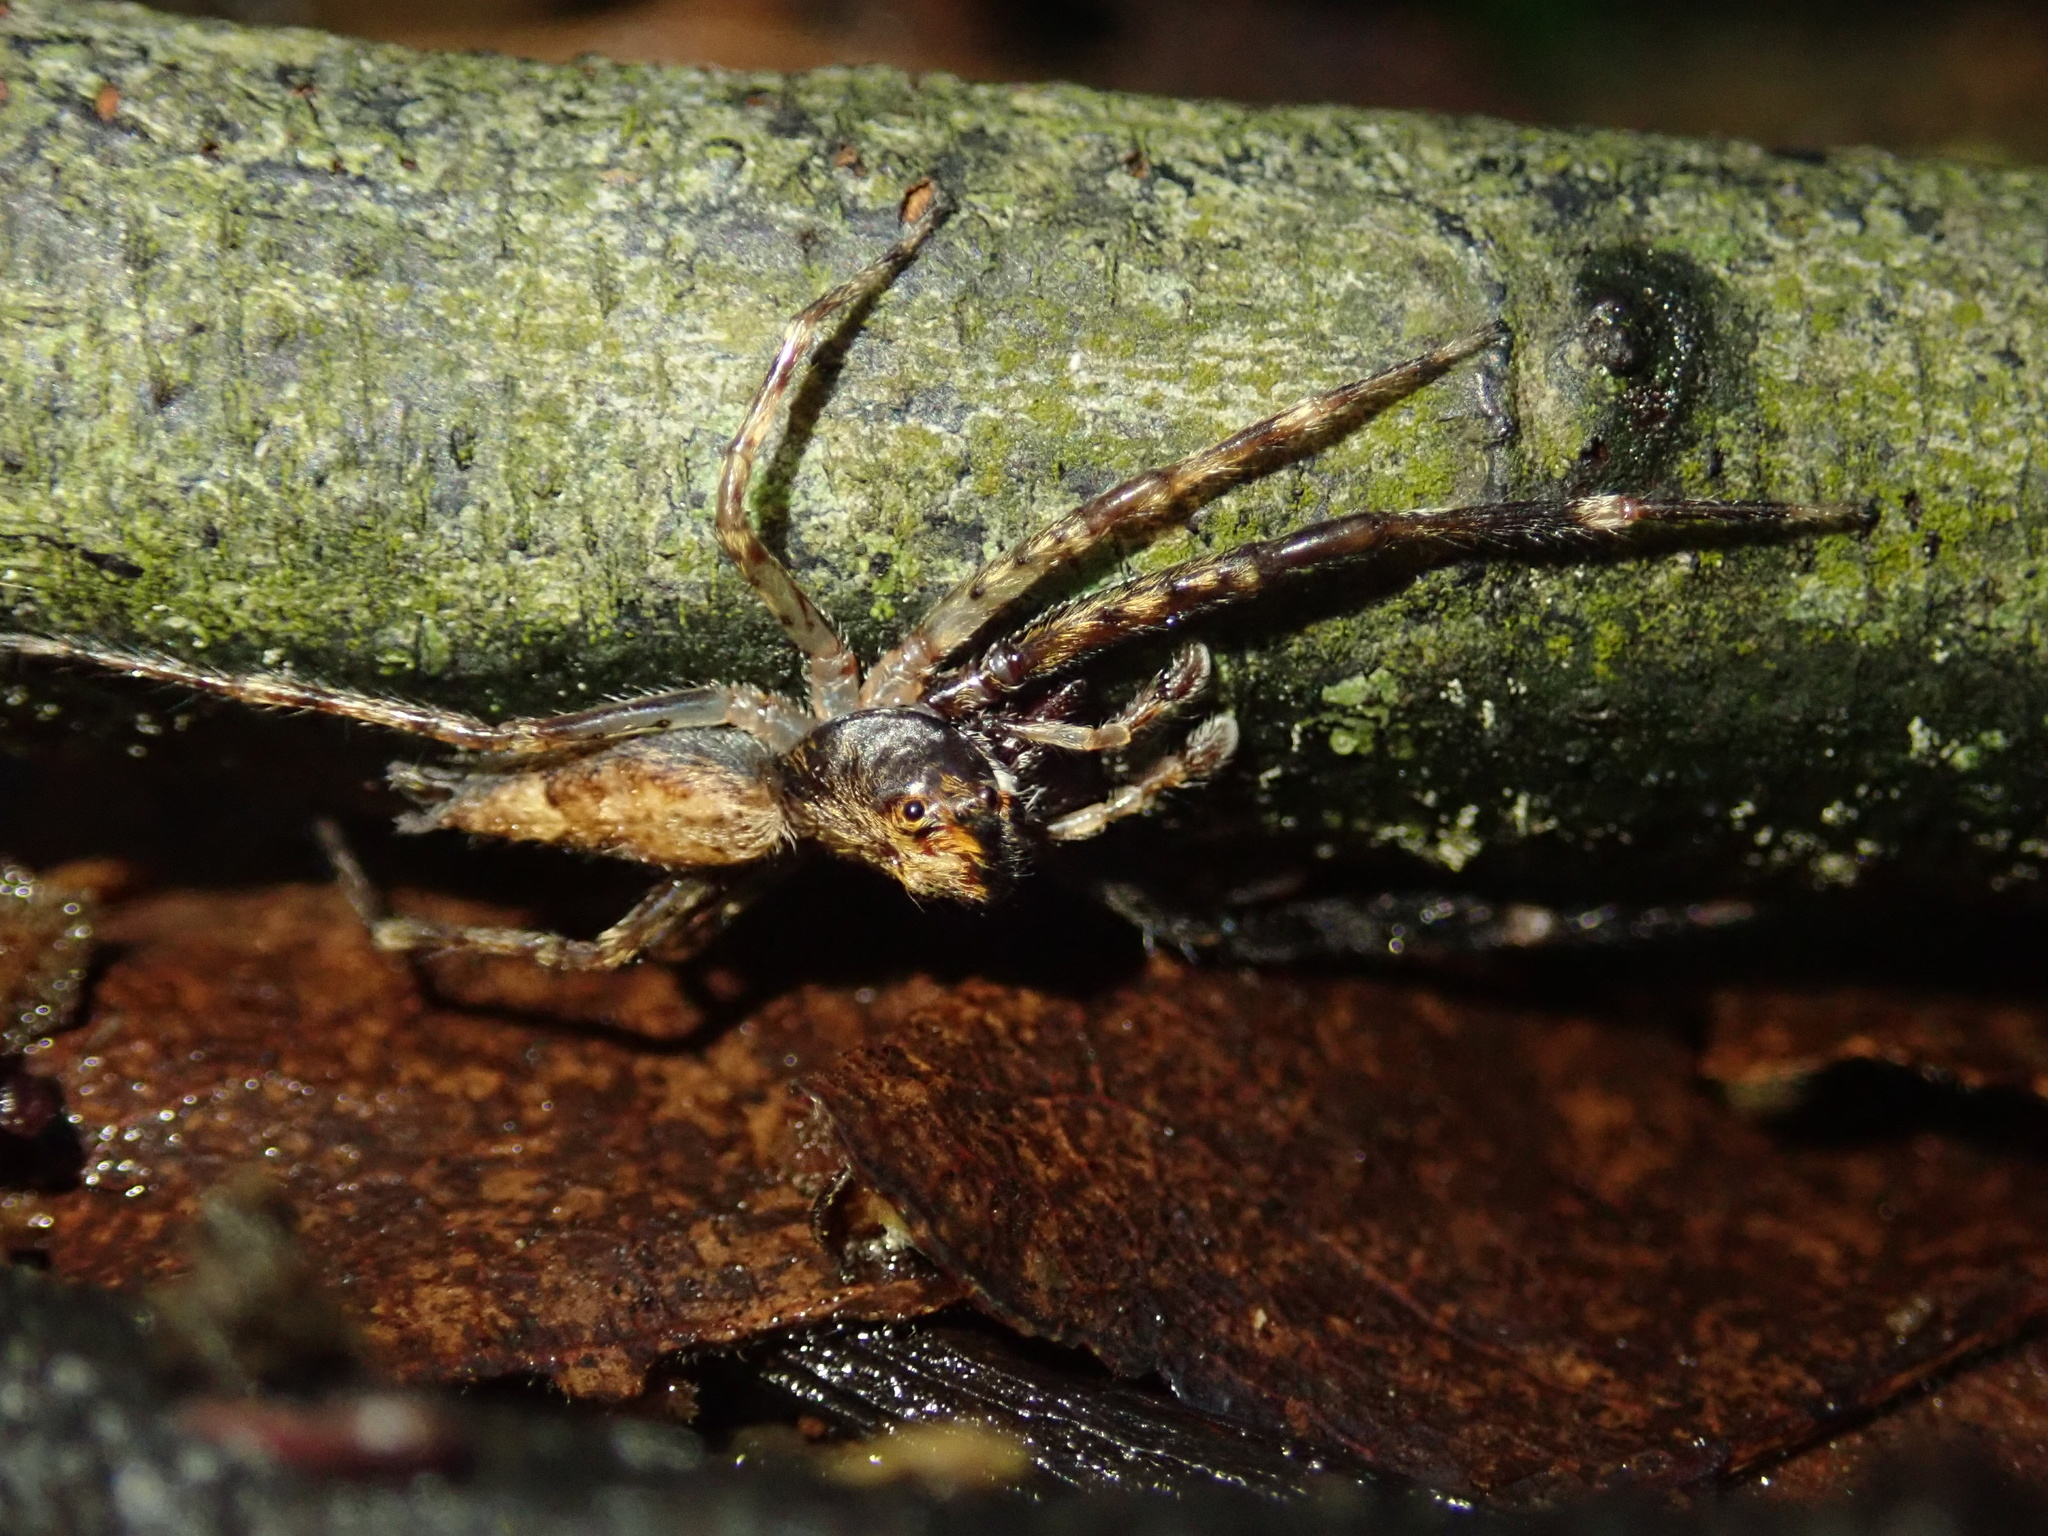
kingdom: Animalia
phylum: Arthropoda
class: Arachnida
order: Araneae
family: Salticidae
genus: Helpis
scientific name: Helpis minitabunda
